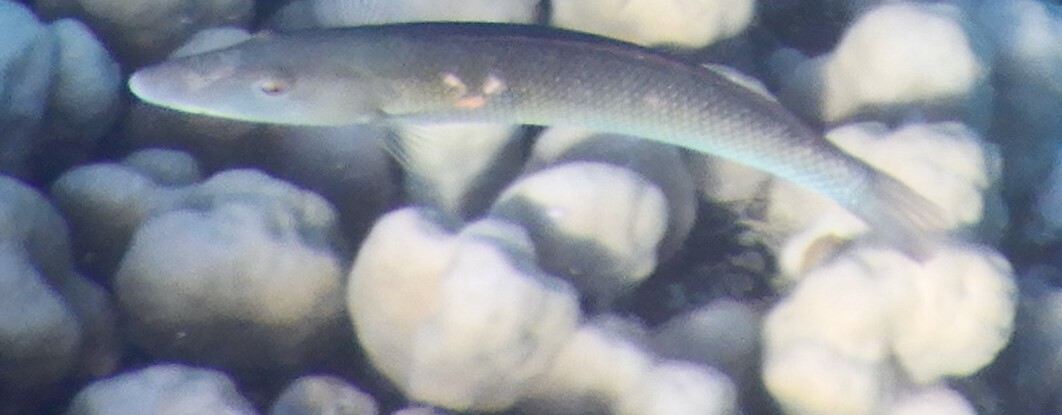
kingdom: Animalia
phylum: Chordata
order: Perciformes
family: Labridae
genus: Cheilio
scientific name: Cheilio inermis
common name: Cigar wrasse
